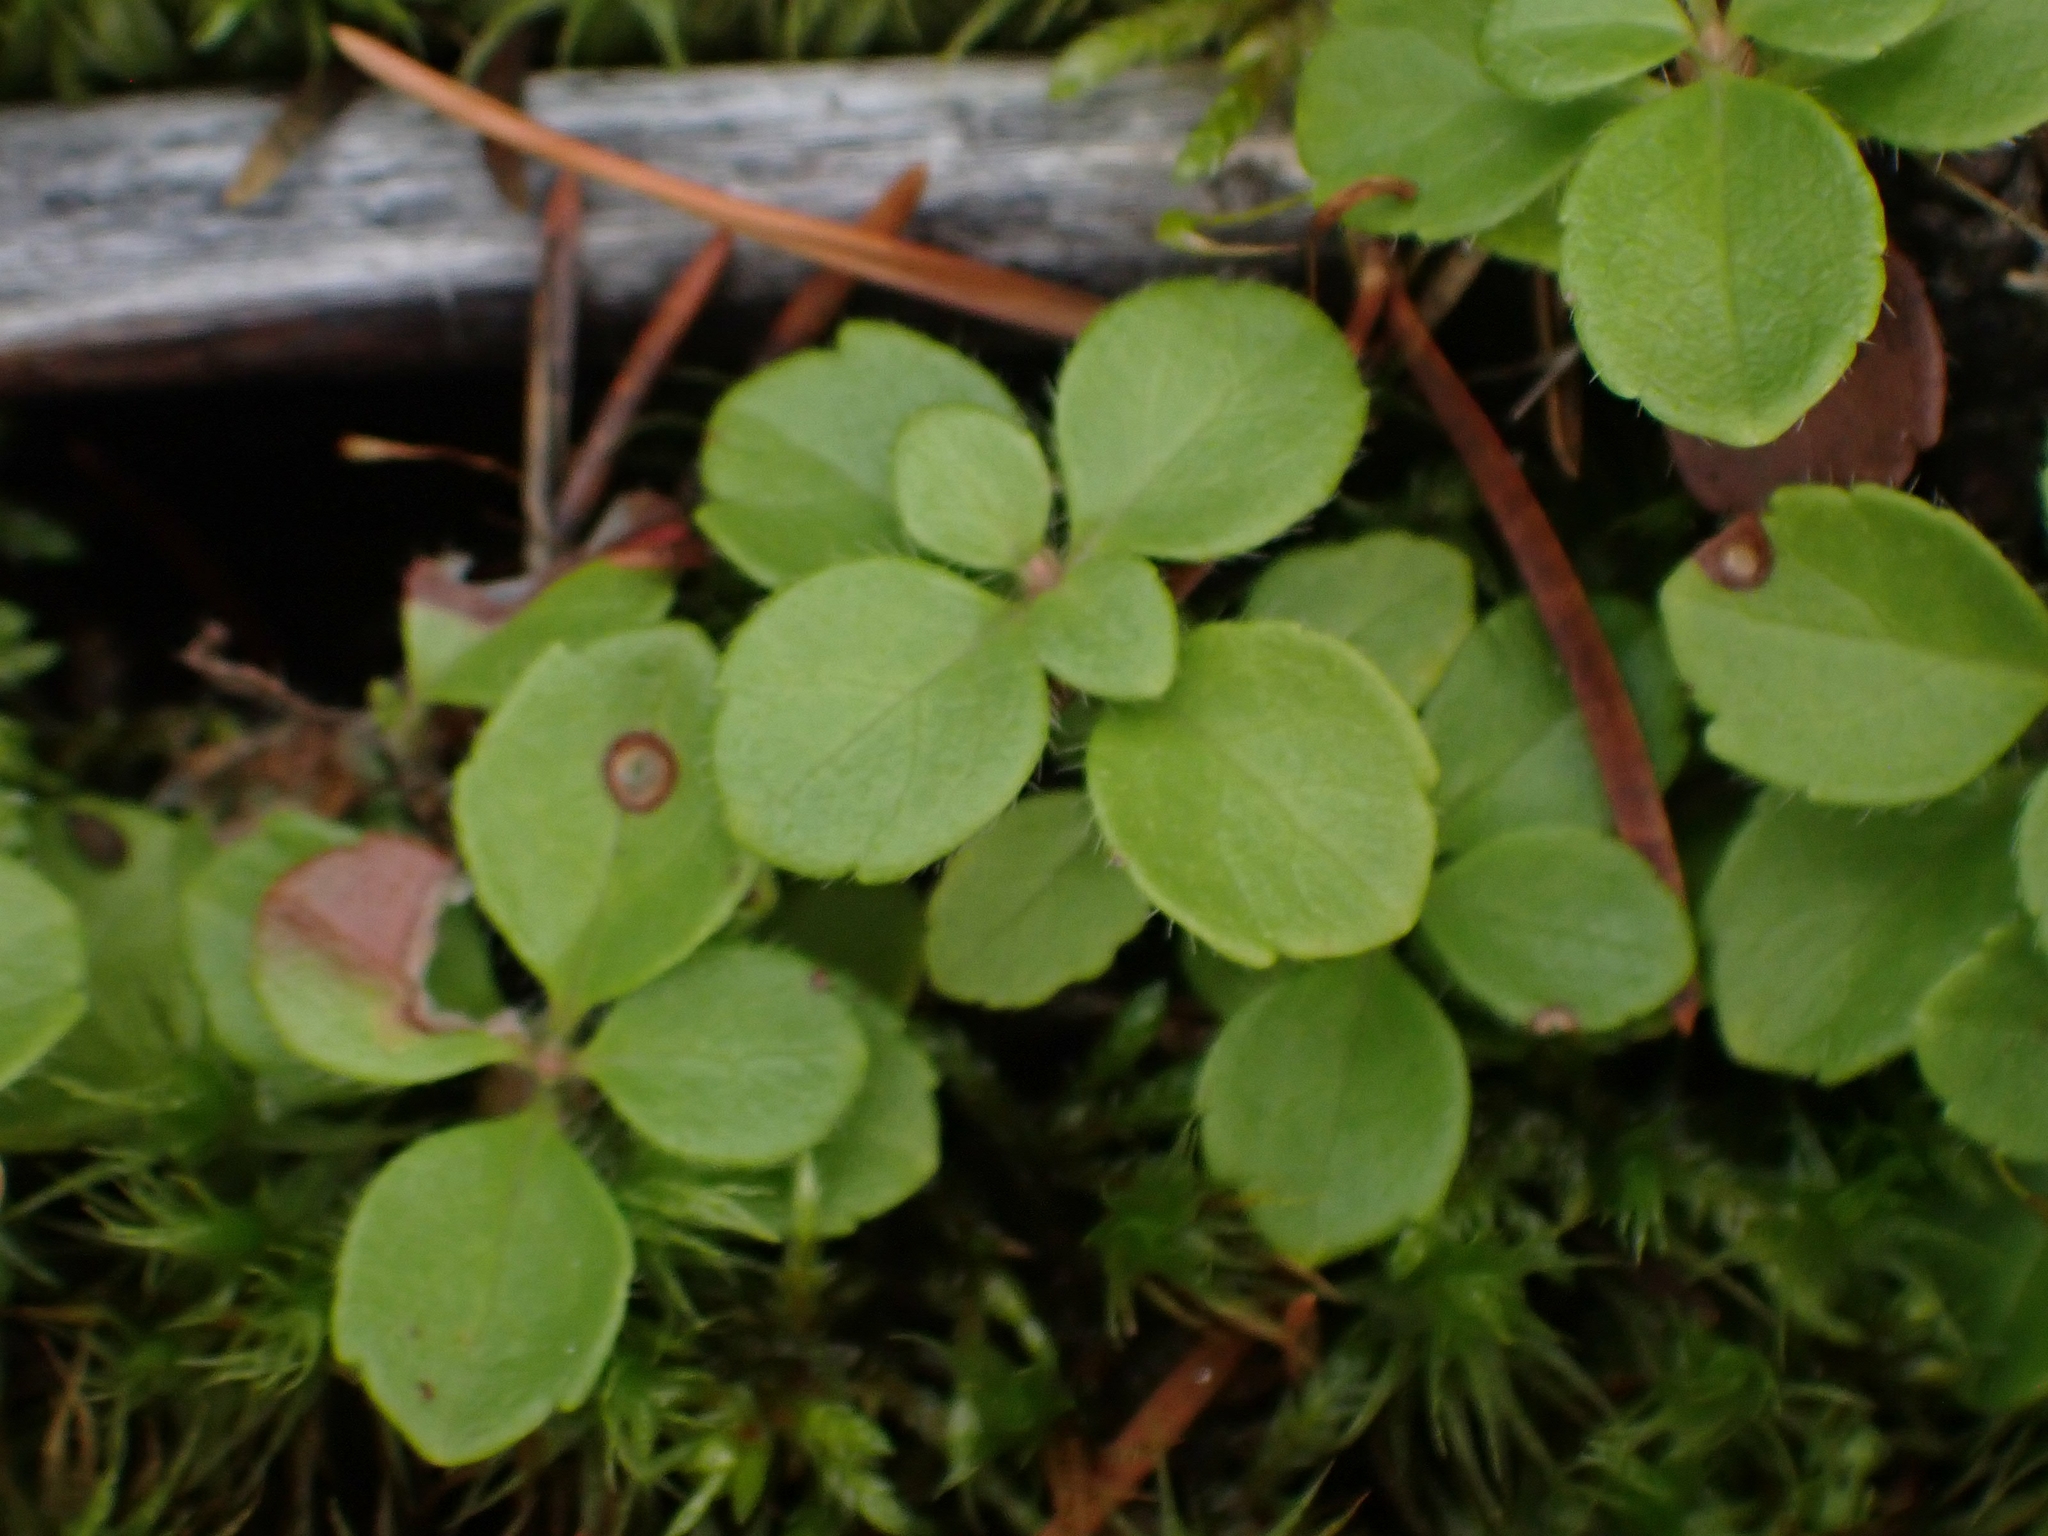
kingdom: Plantae
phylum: Tracheophyta
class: Magnoliopsida
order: Dipsacales
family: Caprifoliaceae
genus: Linnaea
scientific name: Linnaea borealis
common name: Twinflower
